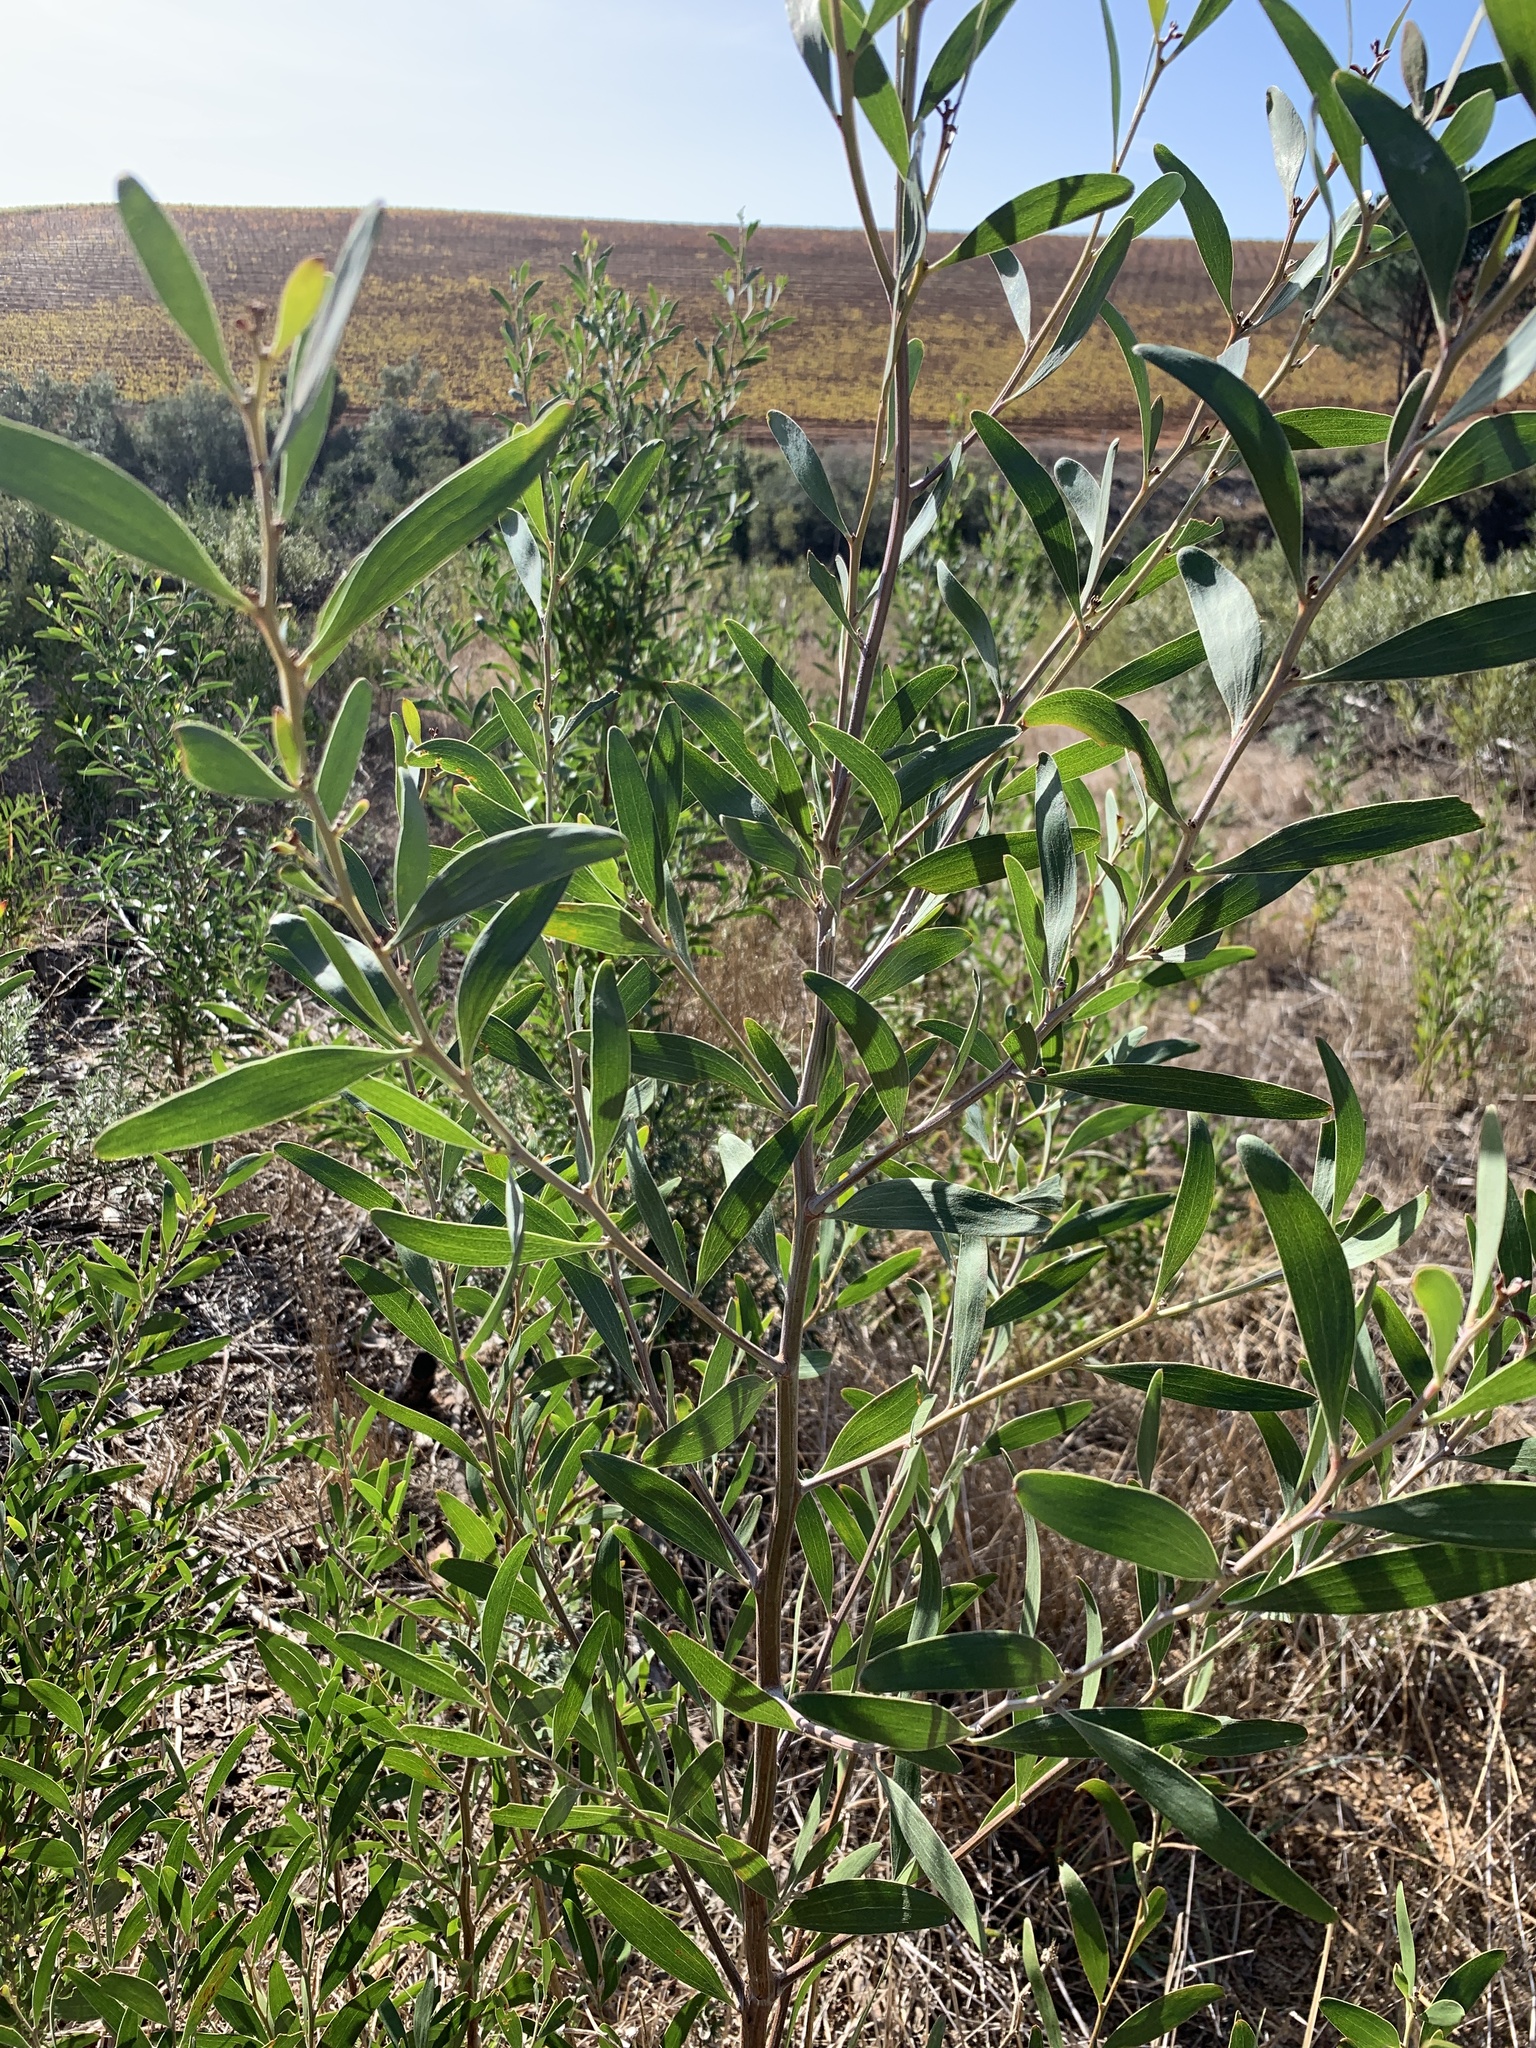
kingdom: Plantae
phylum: Tracheophyta
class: Magnoliopsida
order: Fabales
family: Fabaceae
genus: Acacia
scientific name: Acacia melanoxylon
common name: Blackwood
